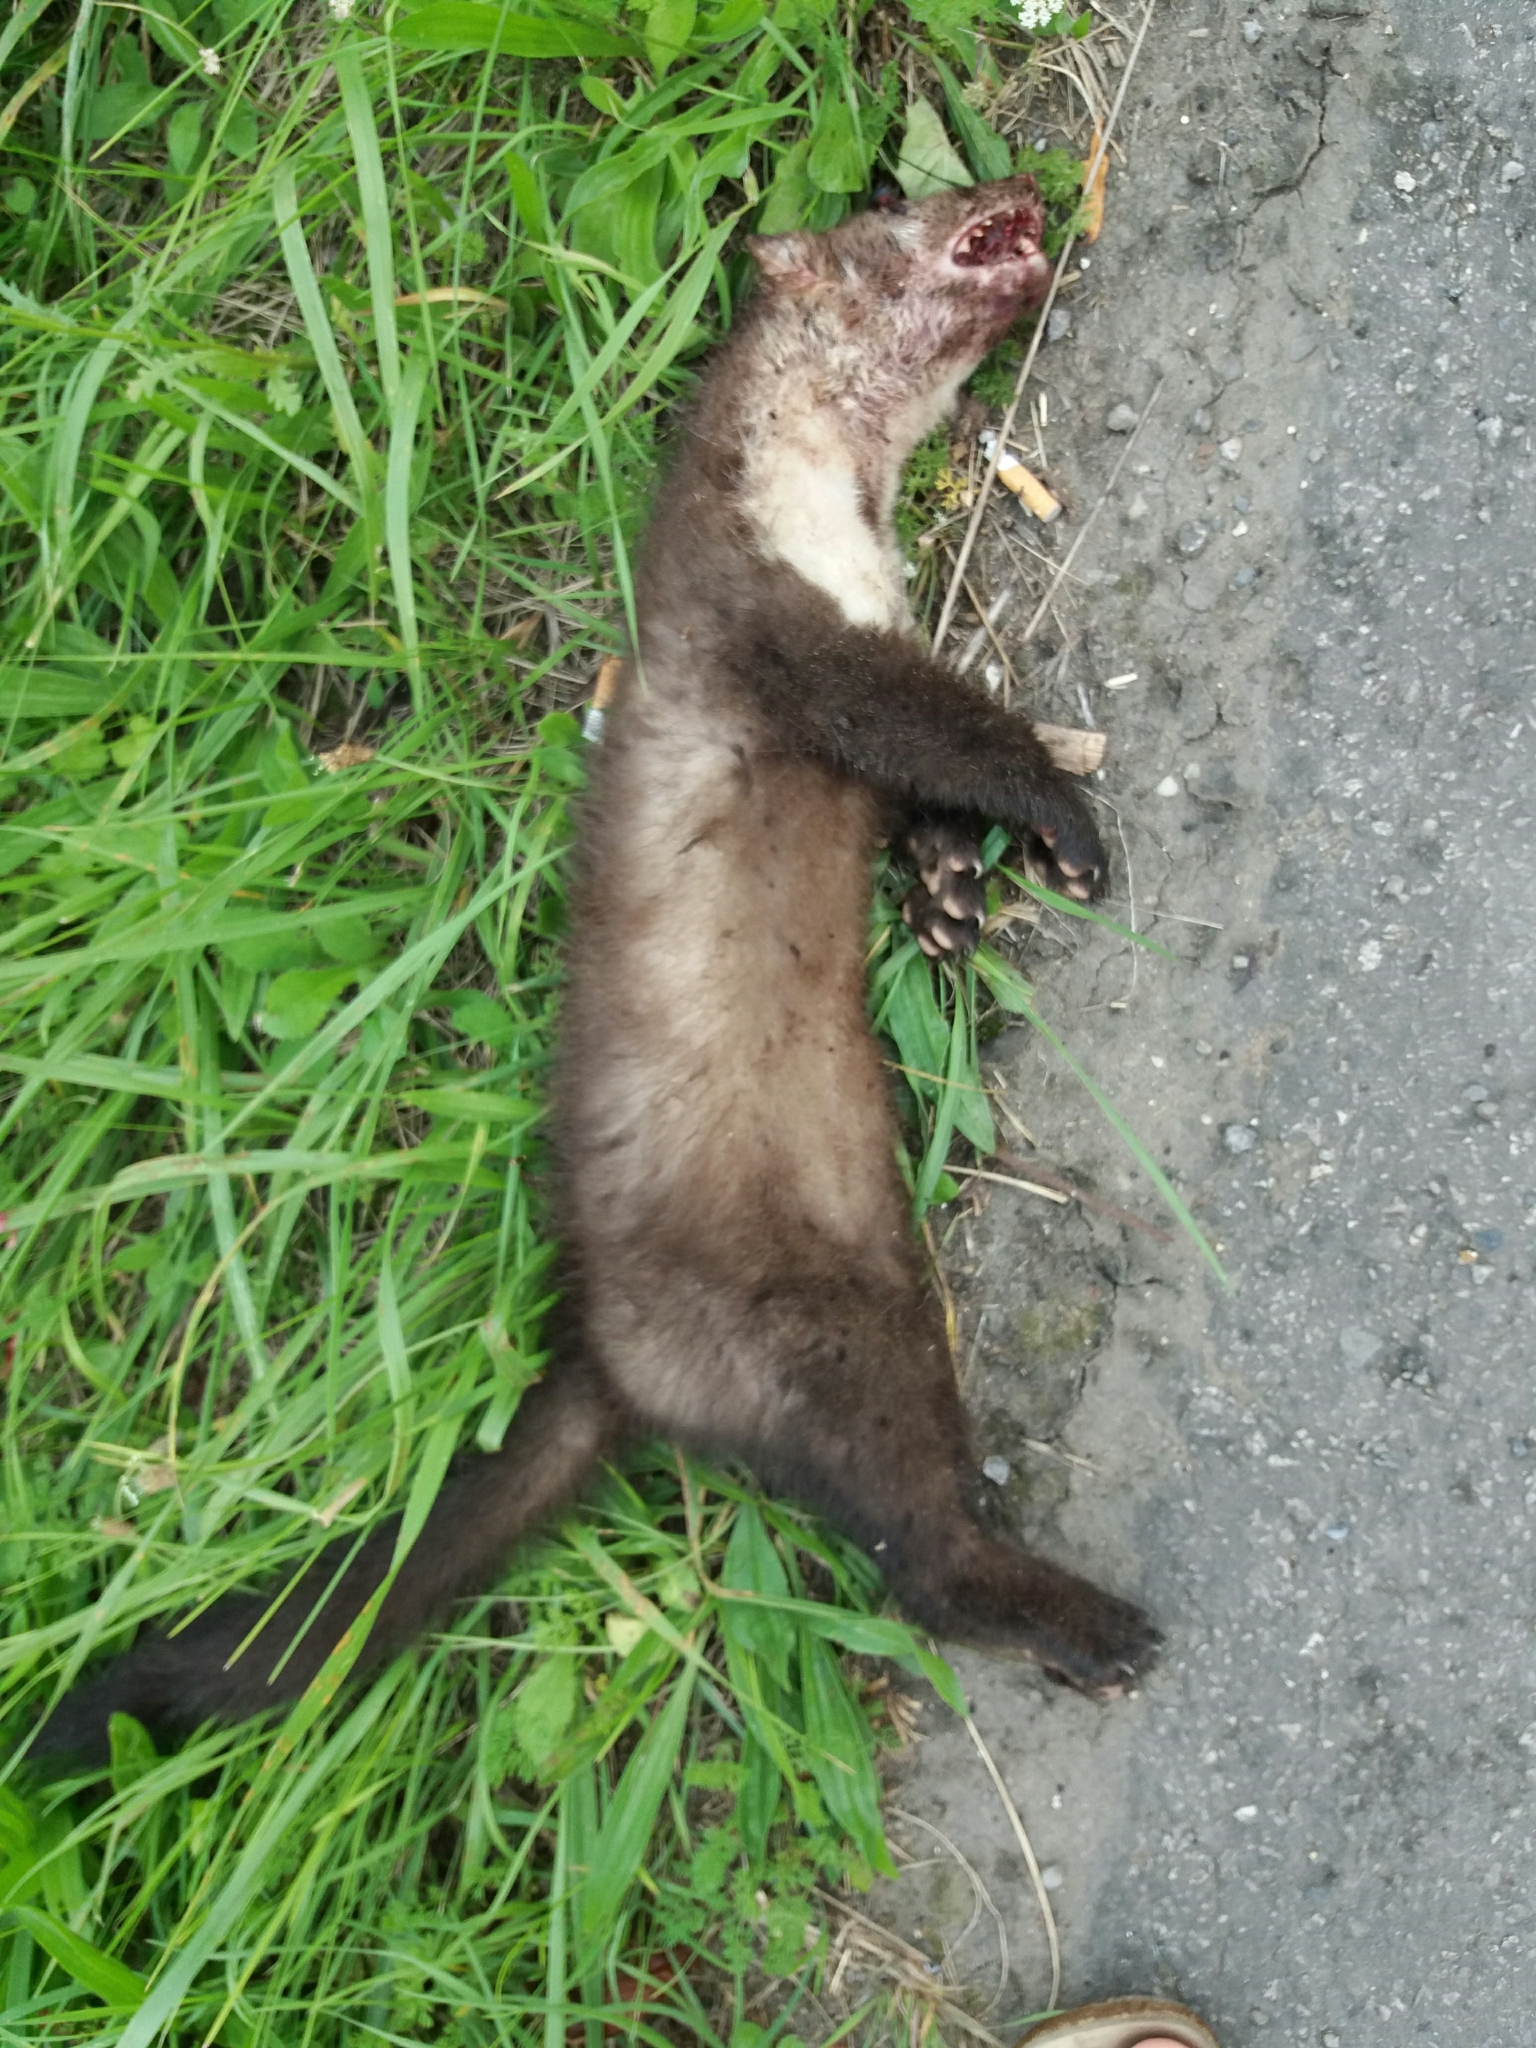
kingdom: Animalia
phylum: Chordata
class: Mammalia
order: Carnivora
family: Mustelidae
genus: Martes
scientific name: Martes foina
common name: Beech marten
